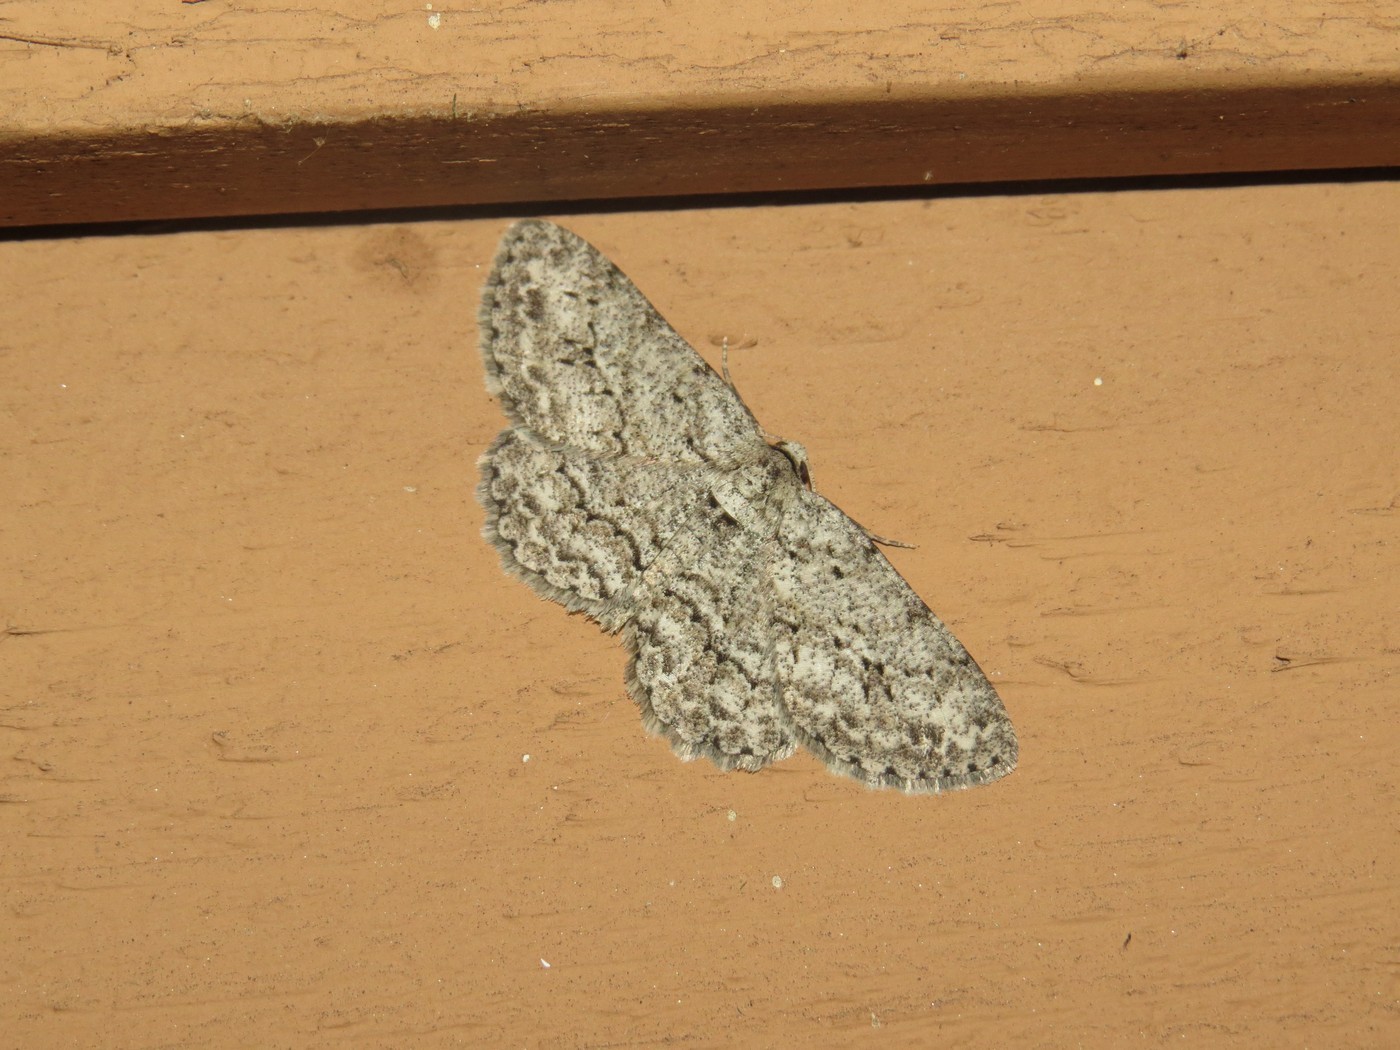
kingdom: Animalia
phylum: Arthropoda
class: Insecta
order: Lepidoptera
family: Geometridae
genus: Ectropis
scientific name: Ectropis crepuscularia
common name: Engrailed
